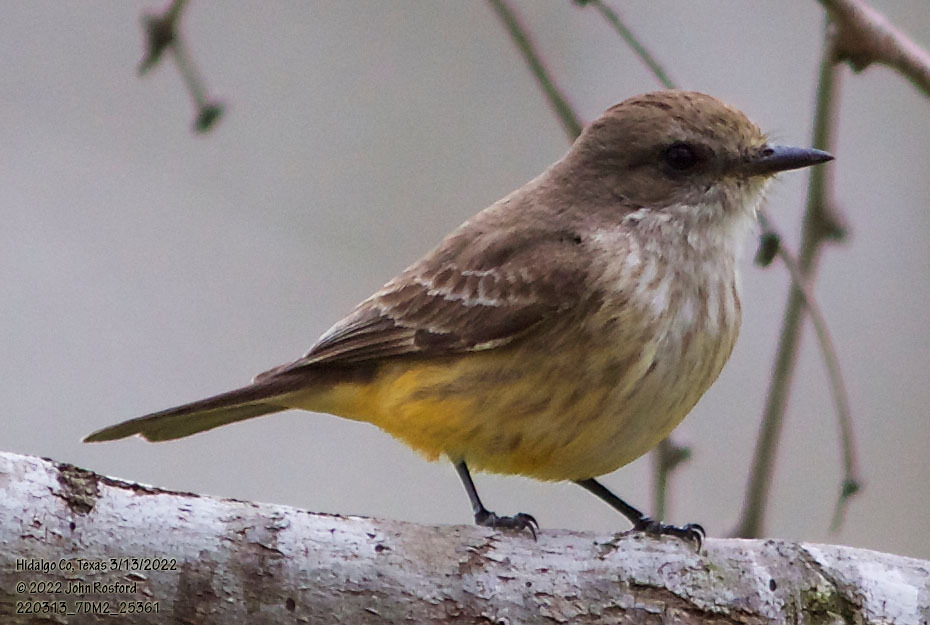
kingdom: Animalia
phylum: Chordata
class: Aves
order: Passeriformes
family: Tyrannidae
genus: Pyrocephalus
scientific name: Pyrocephalus rubinus
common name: Vermilion flycatcher
